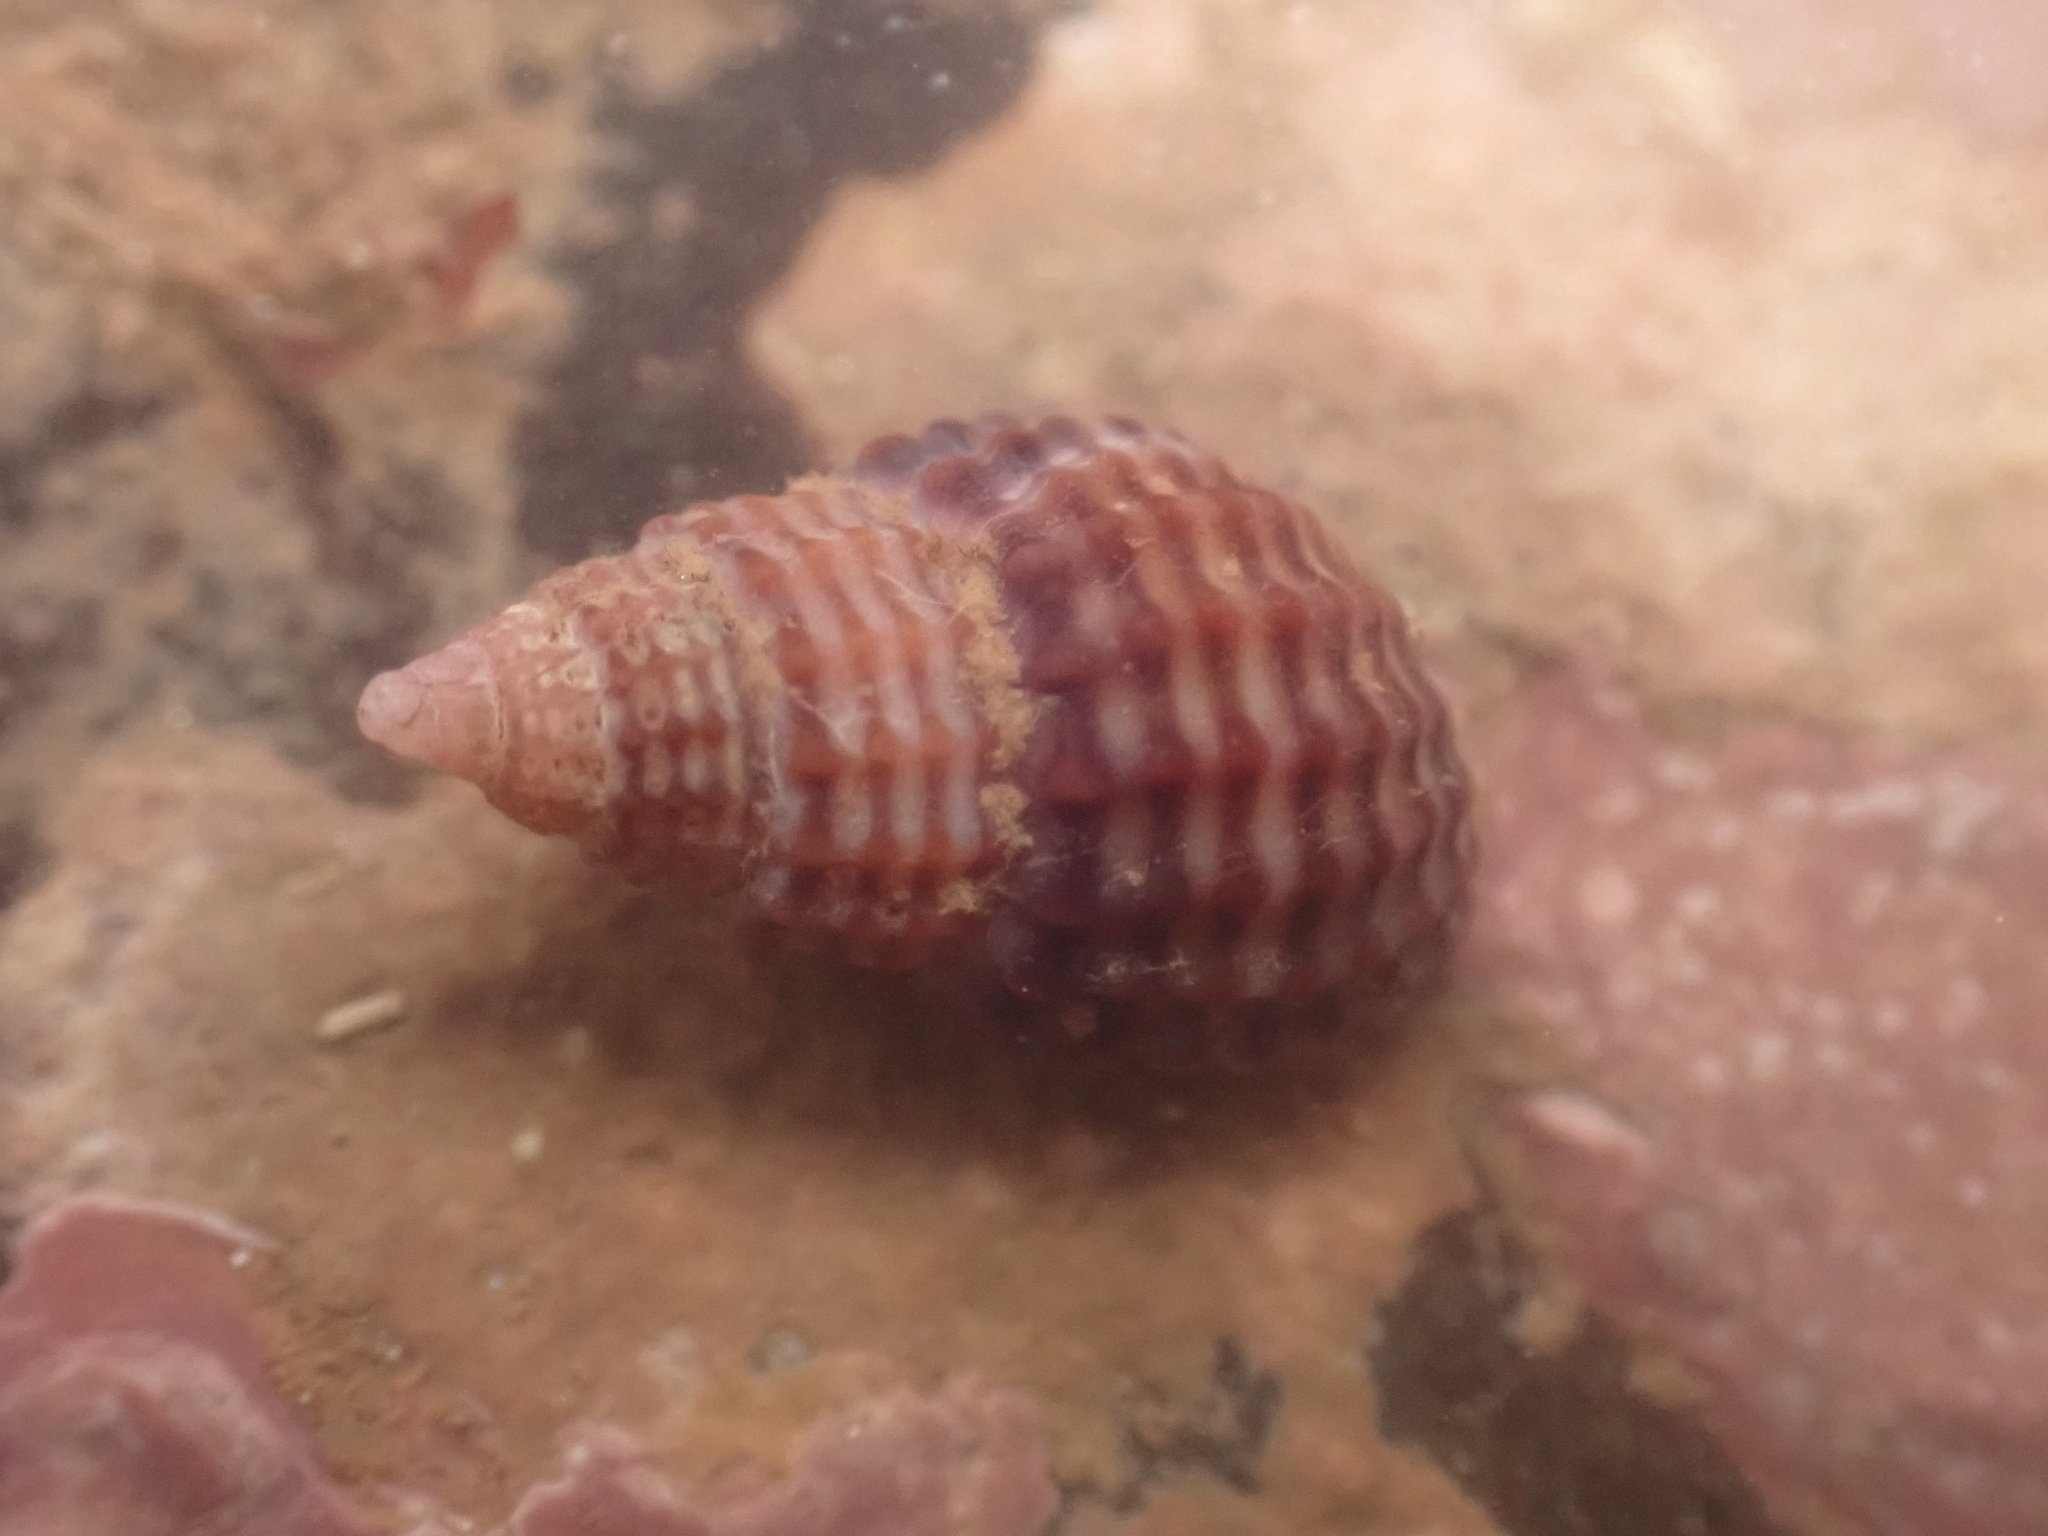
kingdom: Animalia
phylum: Mollusca
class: Gastropoda
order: Neogastropoda
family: Nassariidae
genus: Ilyanassa
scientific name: Ilyanassa trivittata
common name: Three-line mudsnail
